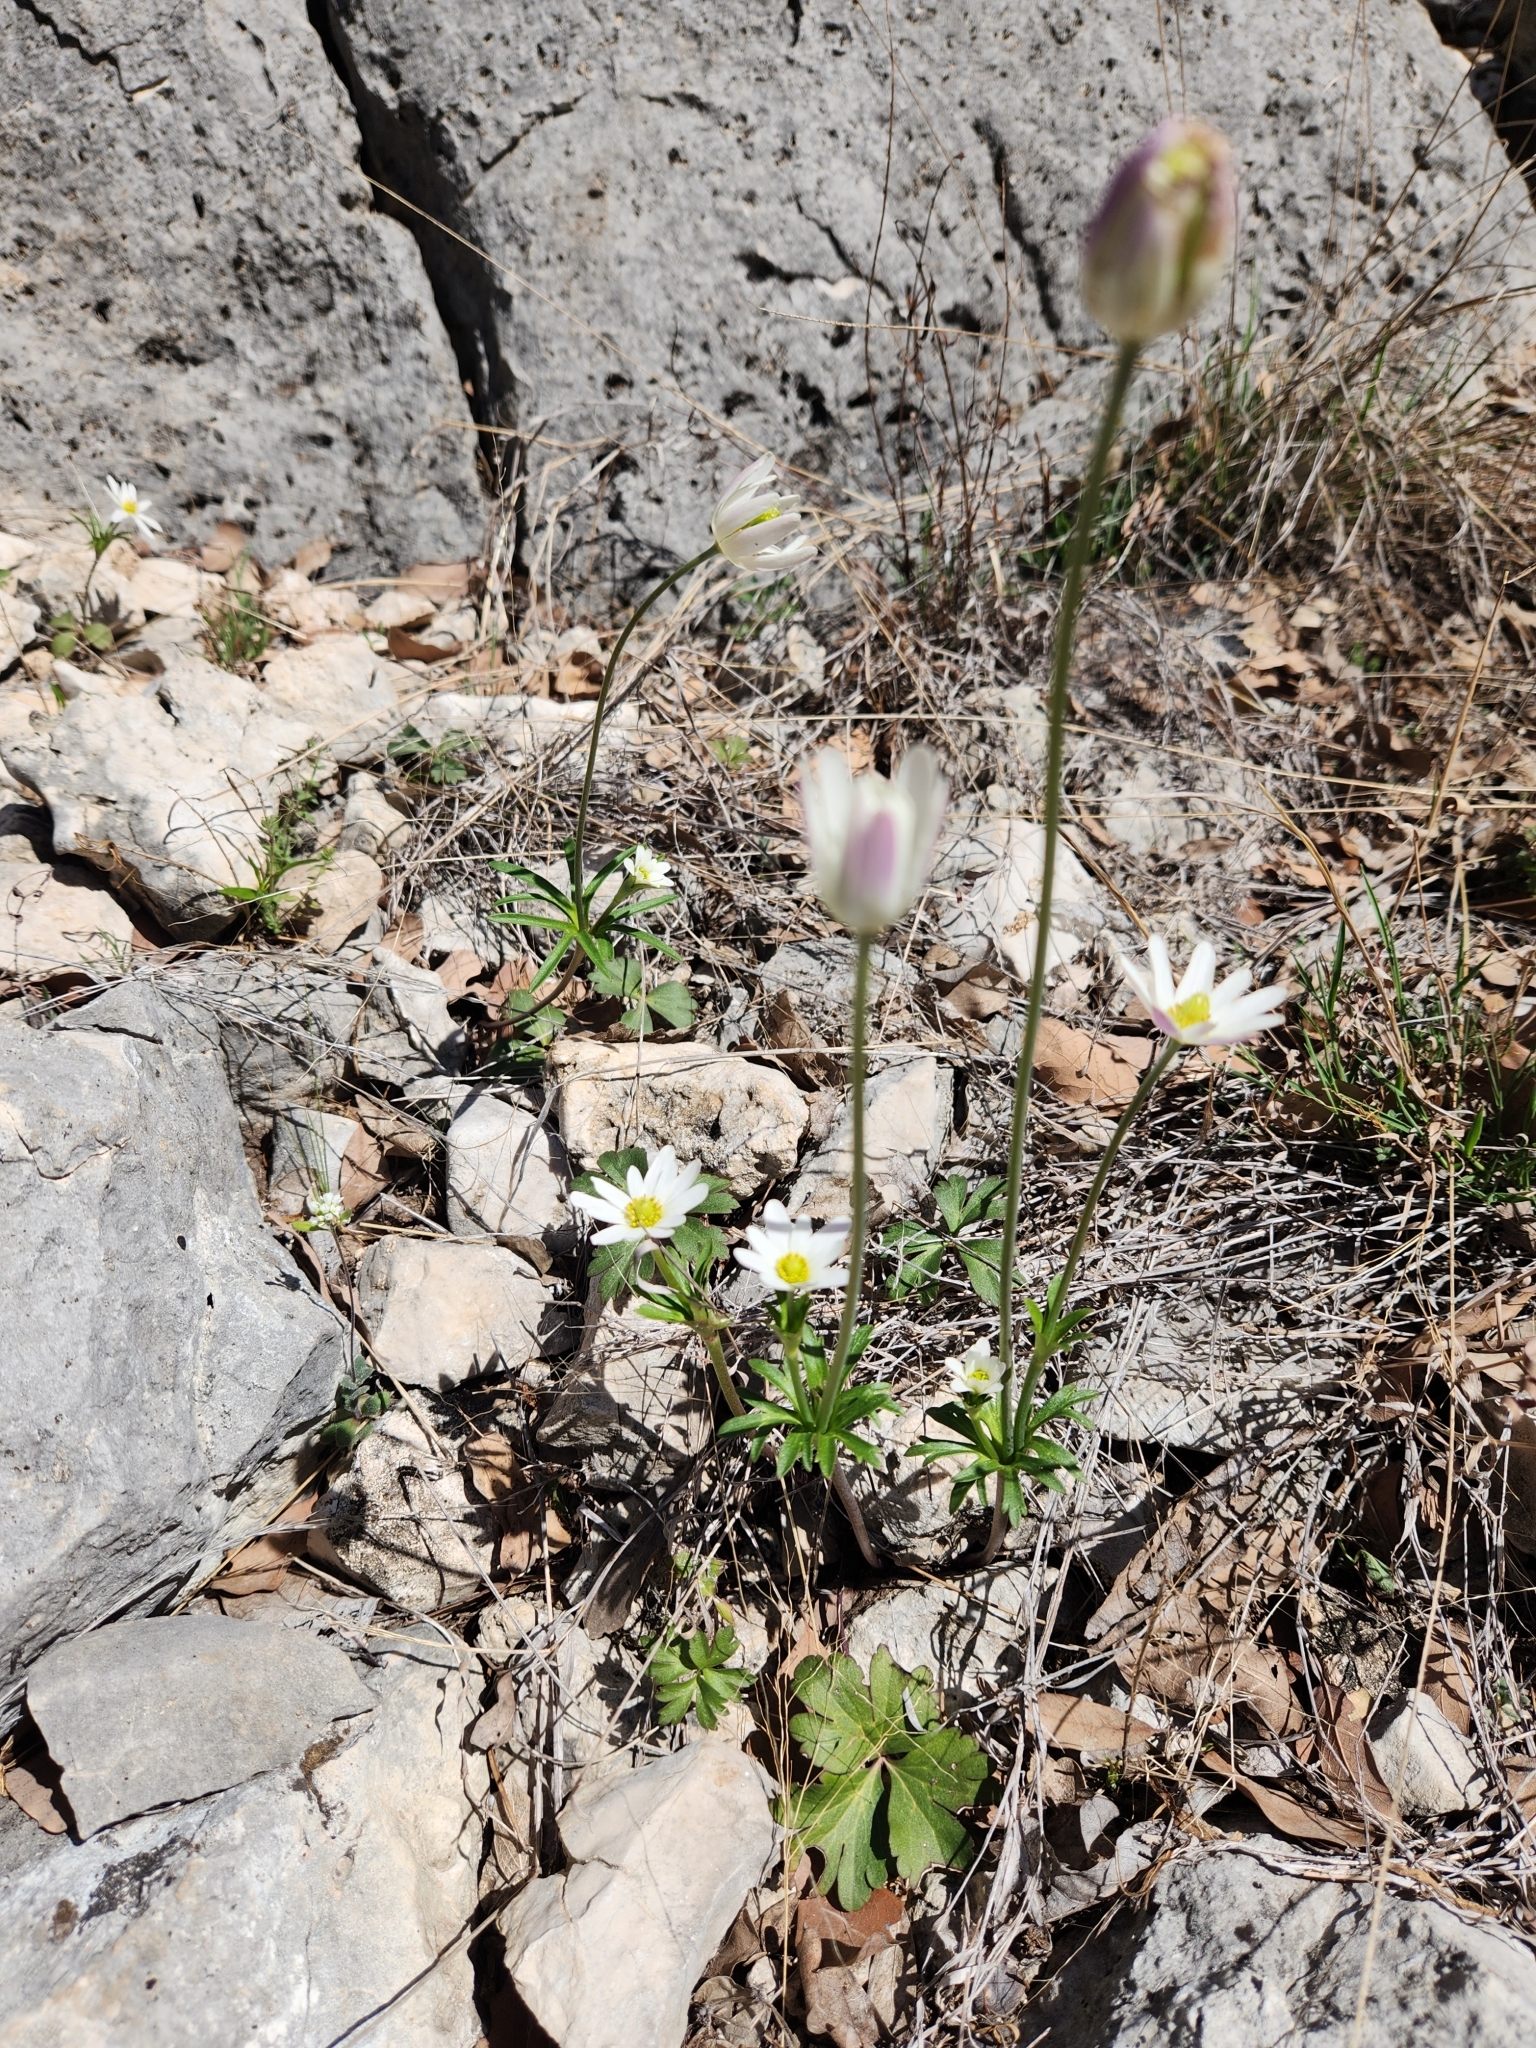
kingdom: Plantae
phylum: Tracheophyta
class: Magnoliopsida
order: Ranunculales
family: Ranunculaceae
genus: Anemone
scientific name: Anemone edwardsiana
